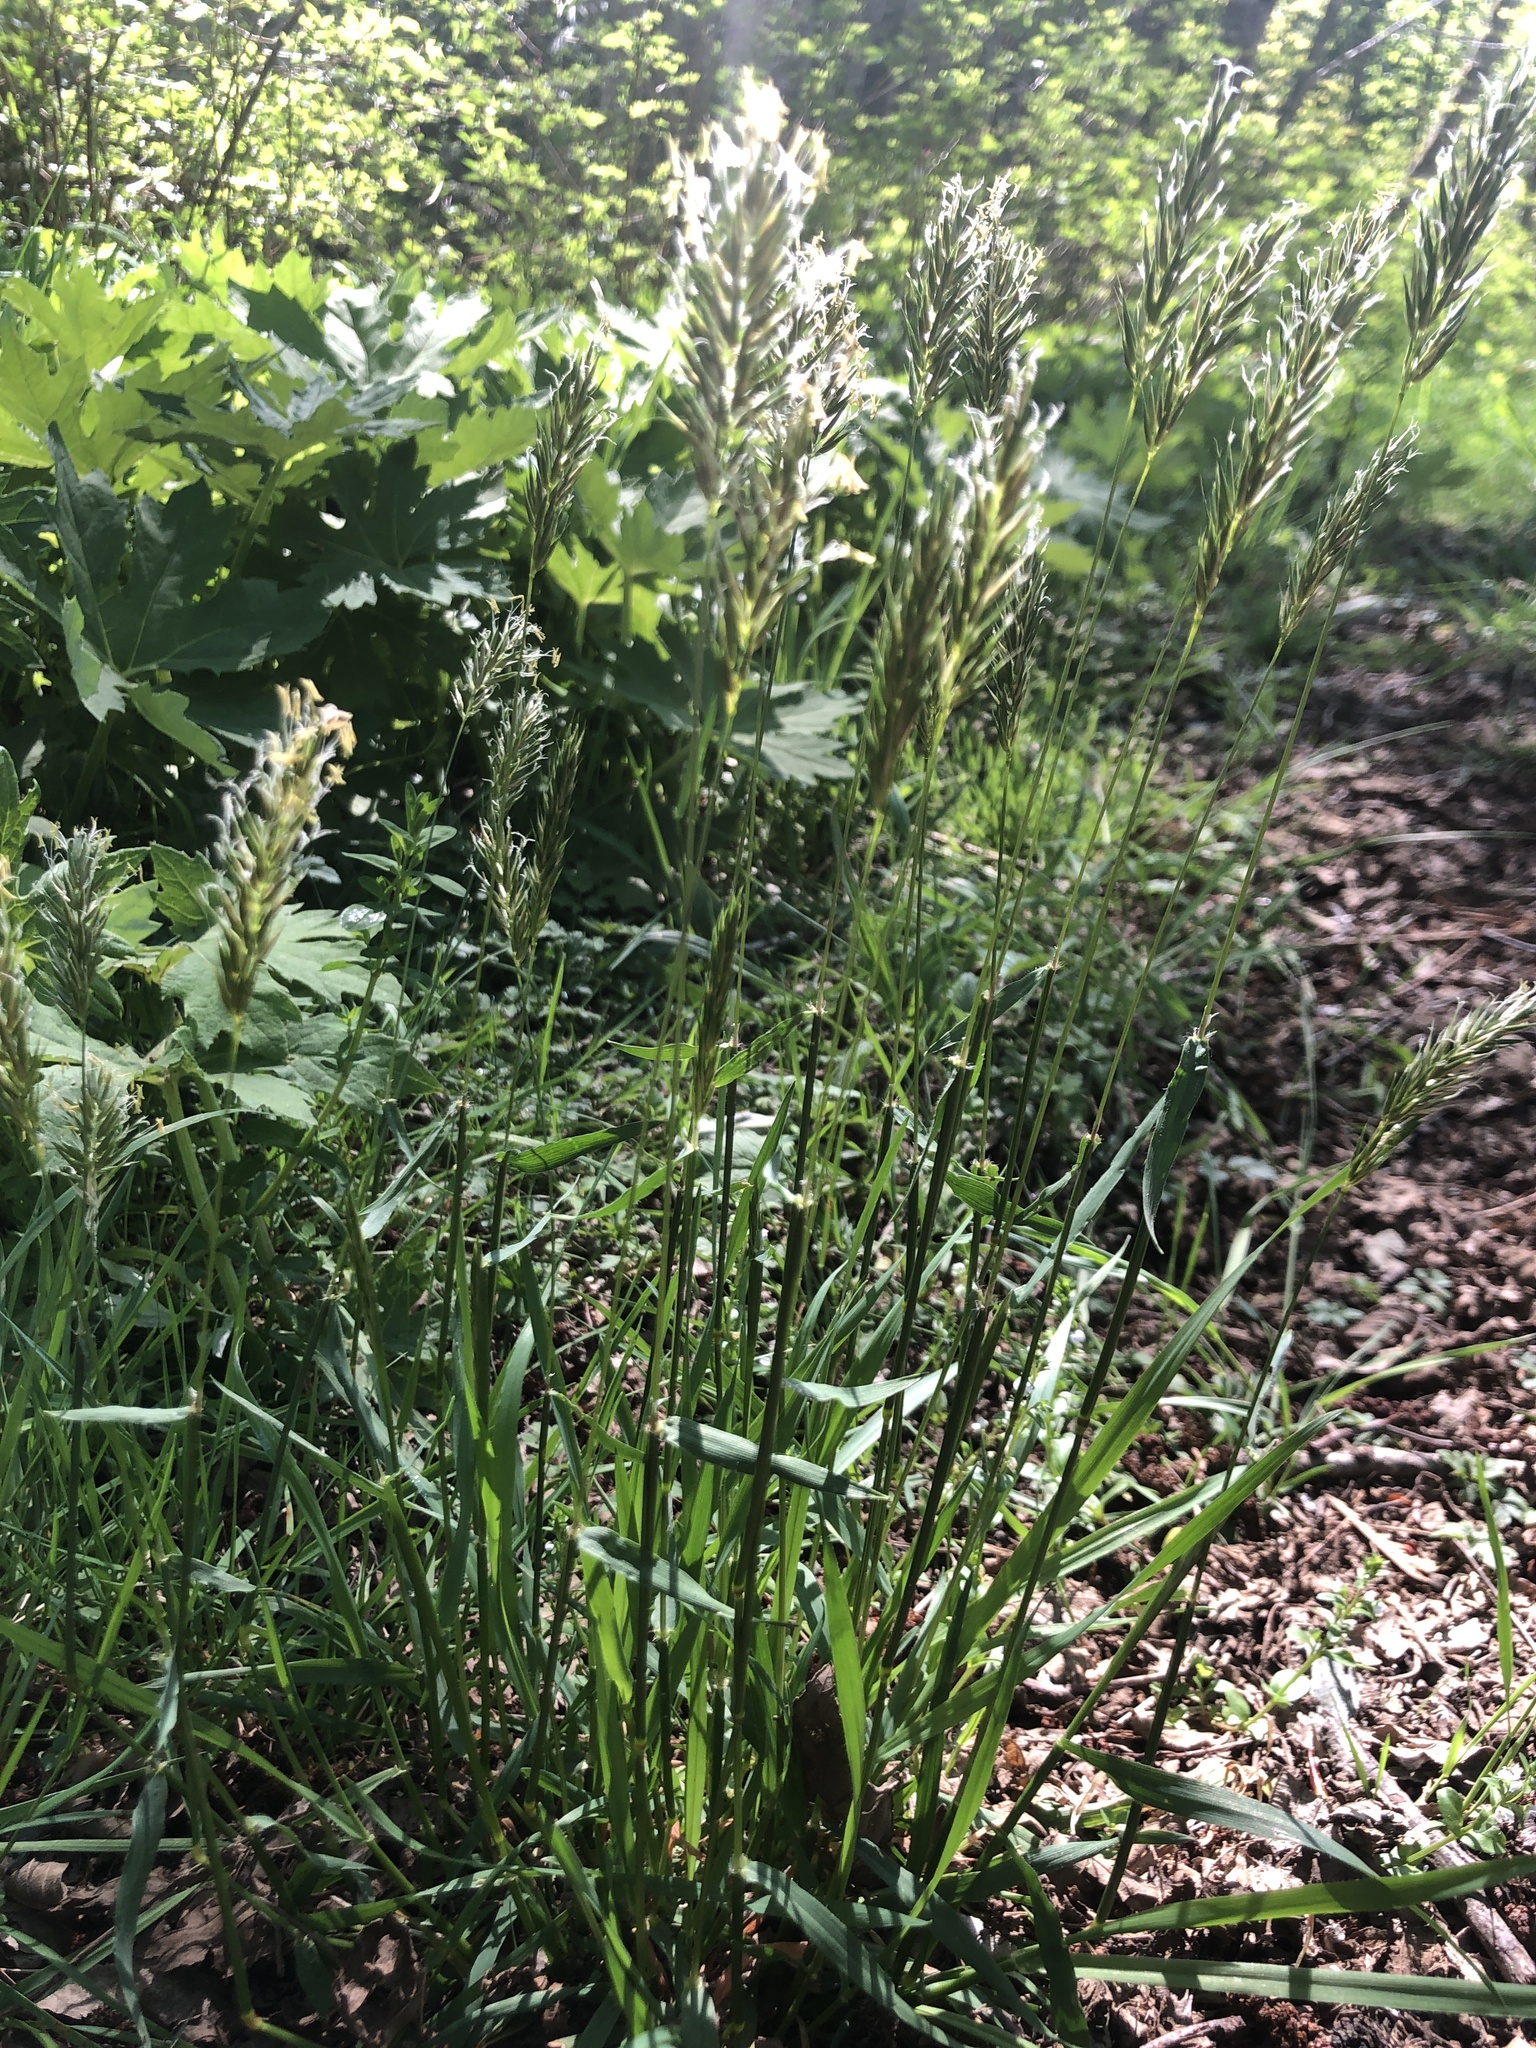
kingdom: Plantae
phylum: Tracheophyta
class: Liliopsida
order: Poales
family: Poaceae
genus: Anthoxanthum
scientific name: Anthoxanthum odoratum
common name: Sweet vernalgrass
